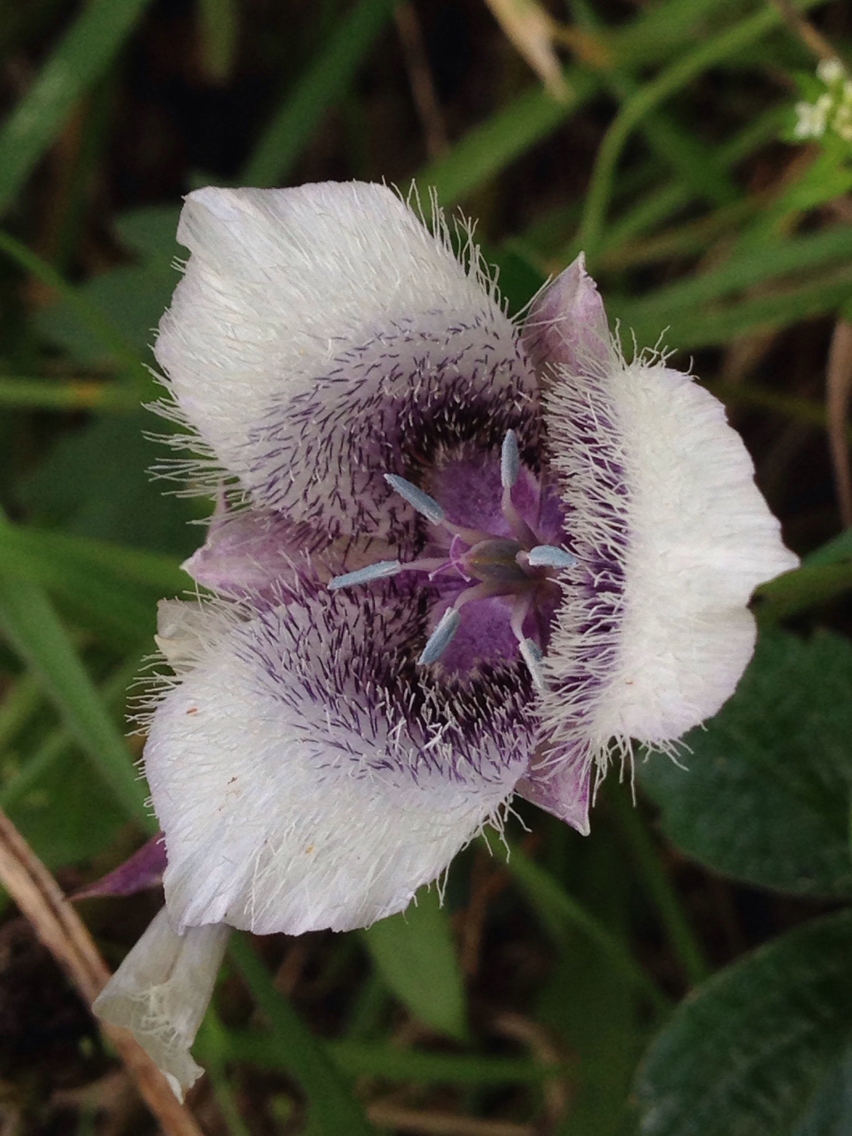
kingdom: Plantae
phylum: Tracheophyta
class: Liliopsida
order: Liliales
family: Liliaceae
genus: Calochortus
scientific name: Calochortus tolmiei
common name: Pussy-ears
